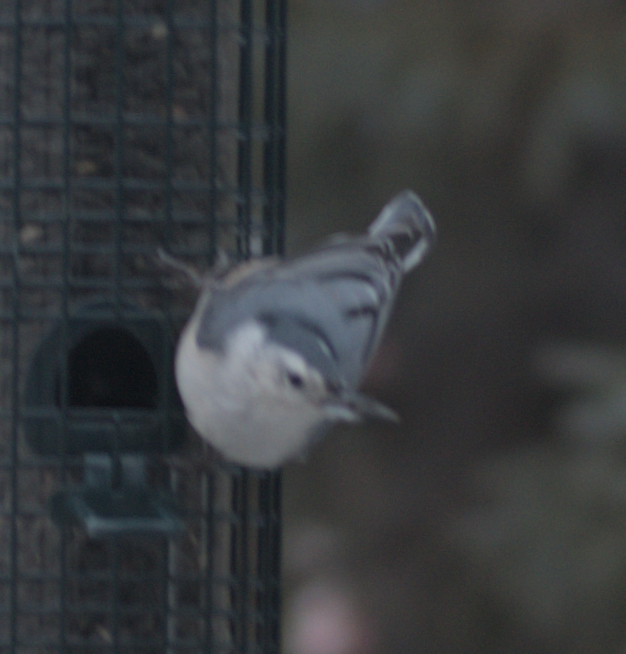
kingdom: Animalia
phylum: Chordata
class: Aves
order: Passeriformes
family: Sittidae
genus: Sitta
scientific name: Sitta carolinensis
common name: White-breasted nuthatch
